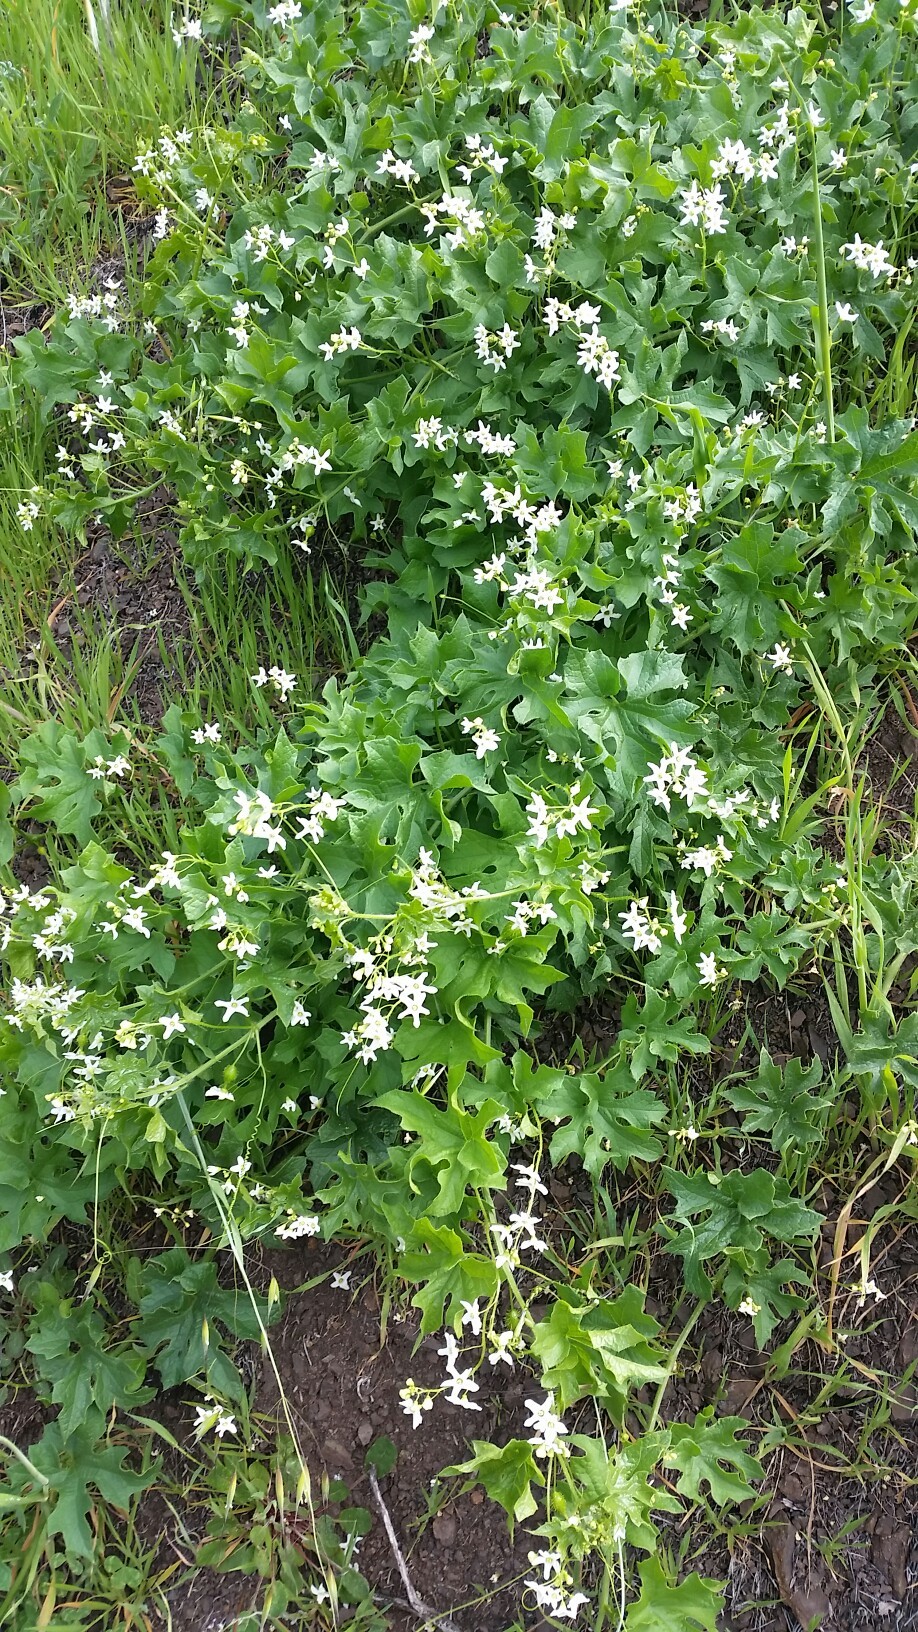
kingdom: Plantae
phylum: Tracheophyta
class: Magnoliopsida
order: Cucurbitales
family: Cucurbitaceae
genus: Marah
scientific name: Marah oregana
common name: Coastal manroot
